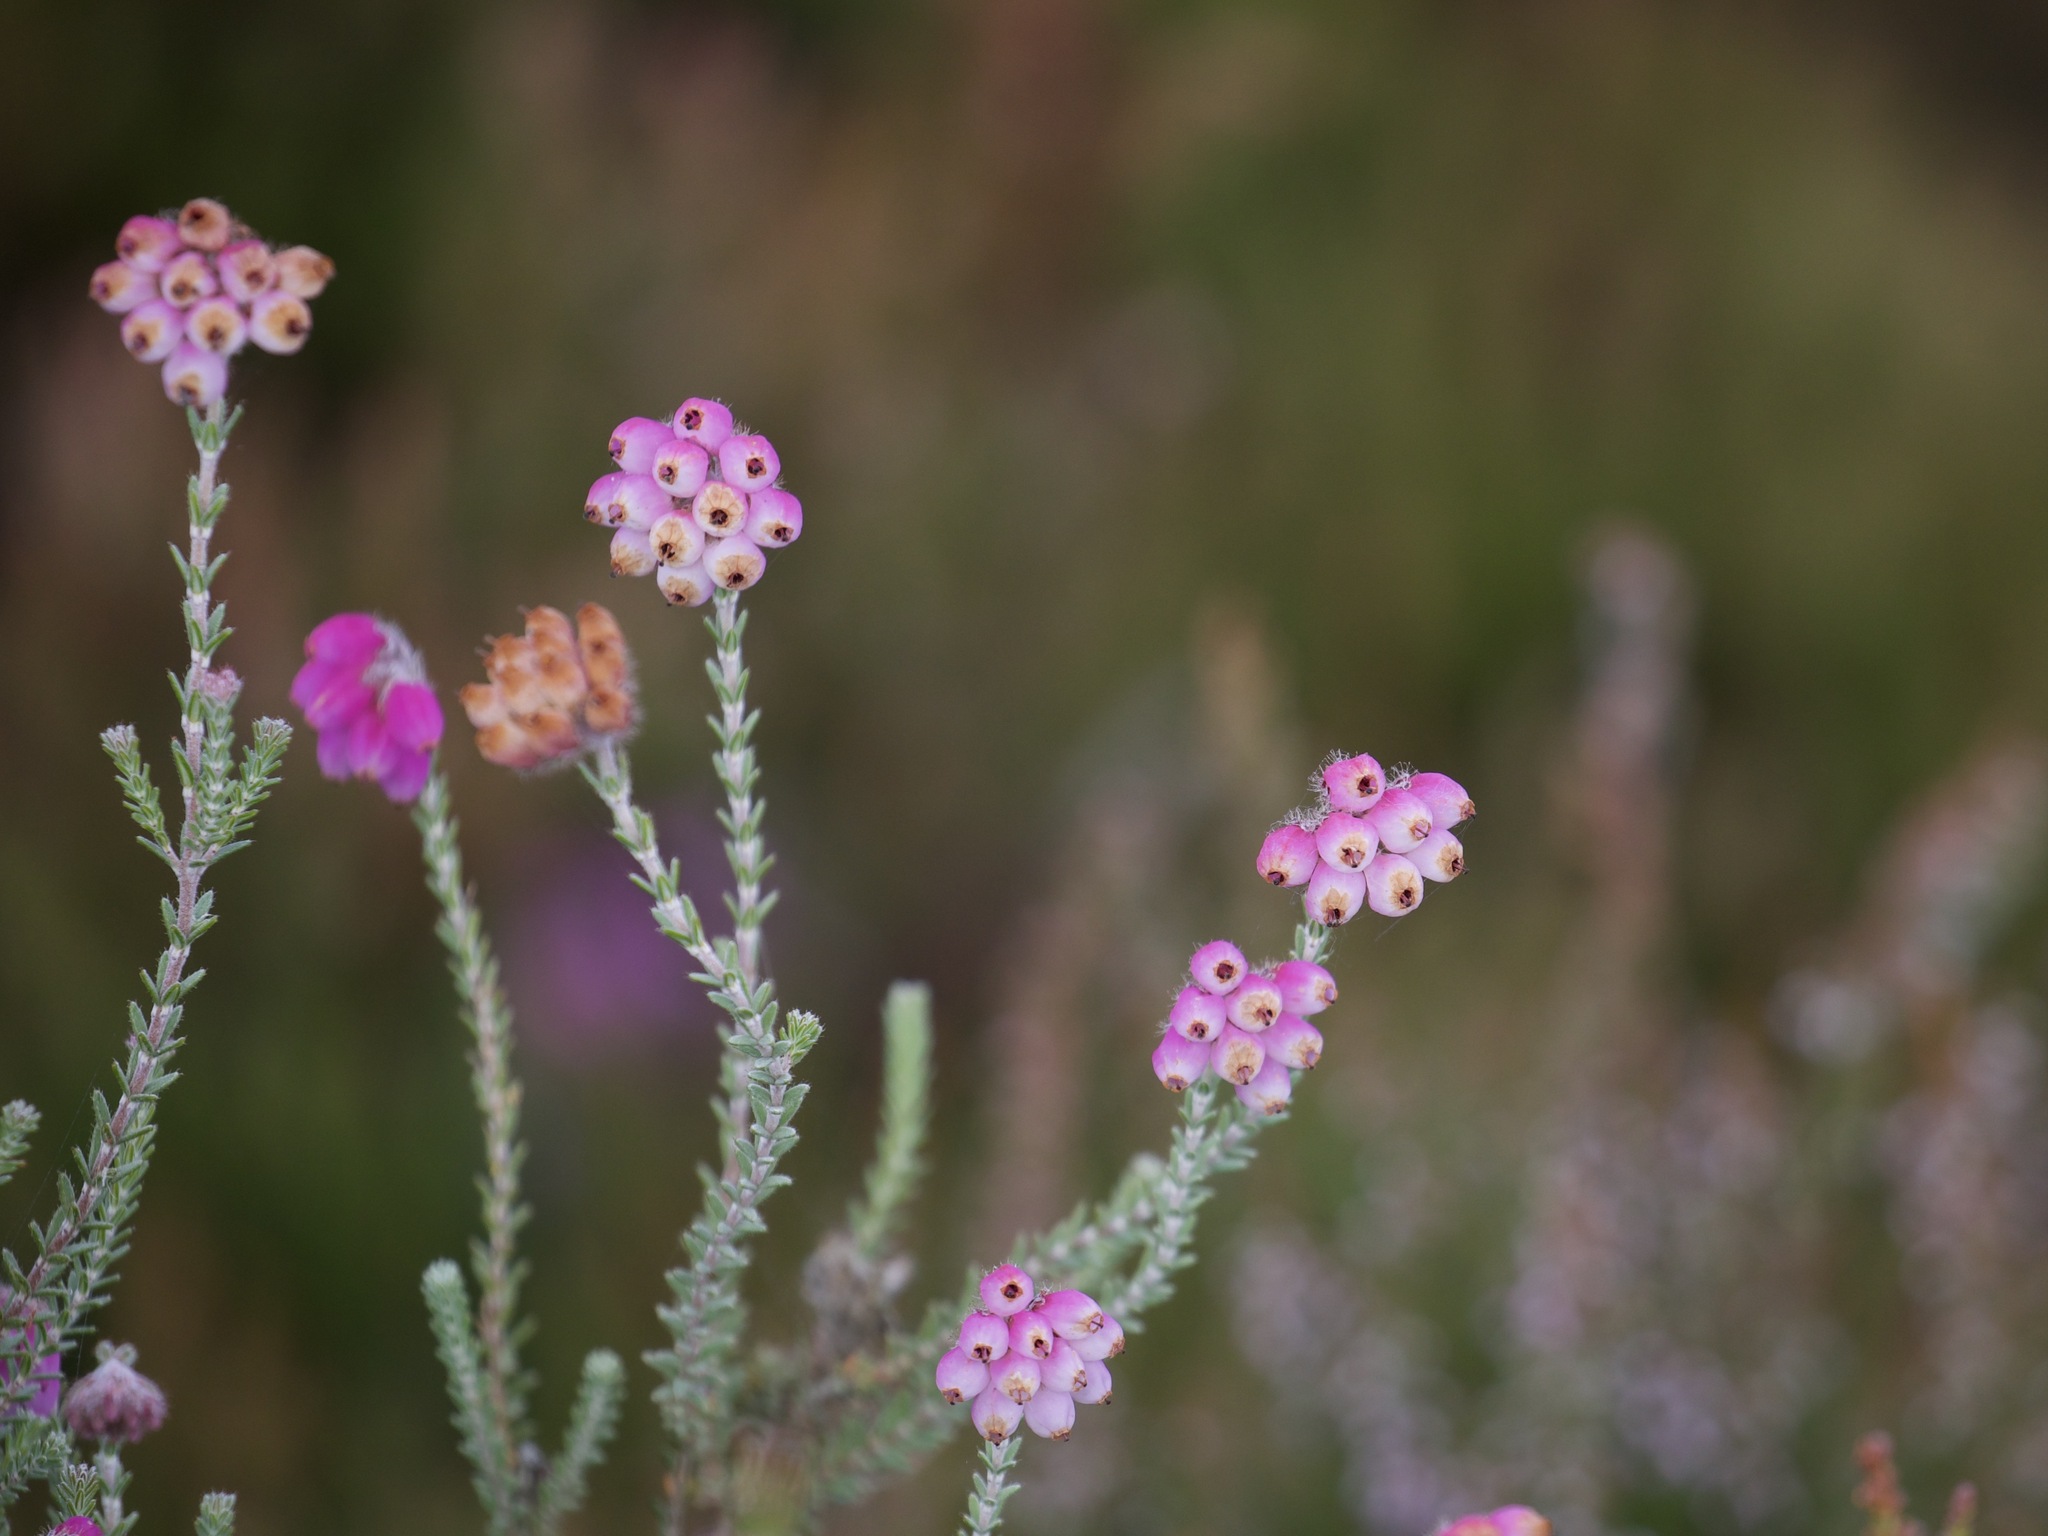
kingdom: Plantae
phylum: Tracheophyta
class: Magnoliopsida
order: Ericales
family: Ericaceae
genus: Erica
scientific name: Erica tetralix
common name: Cross-leaved heath
